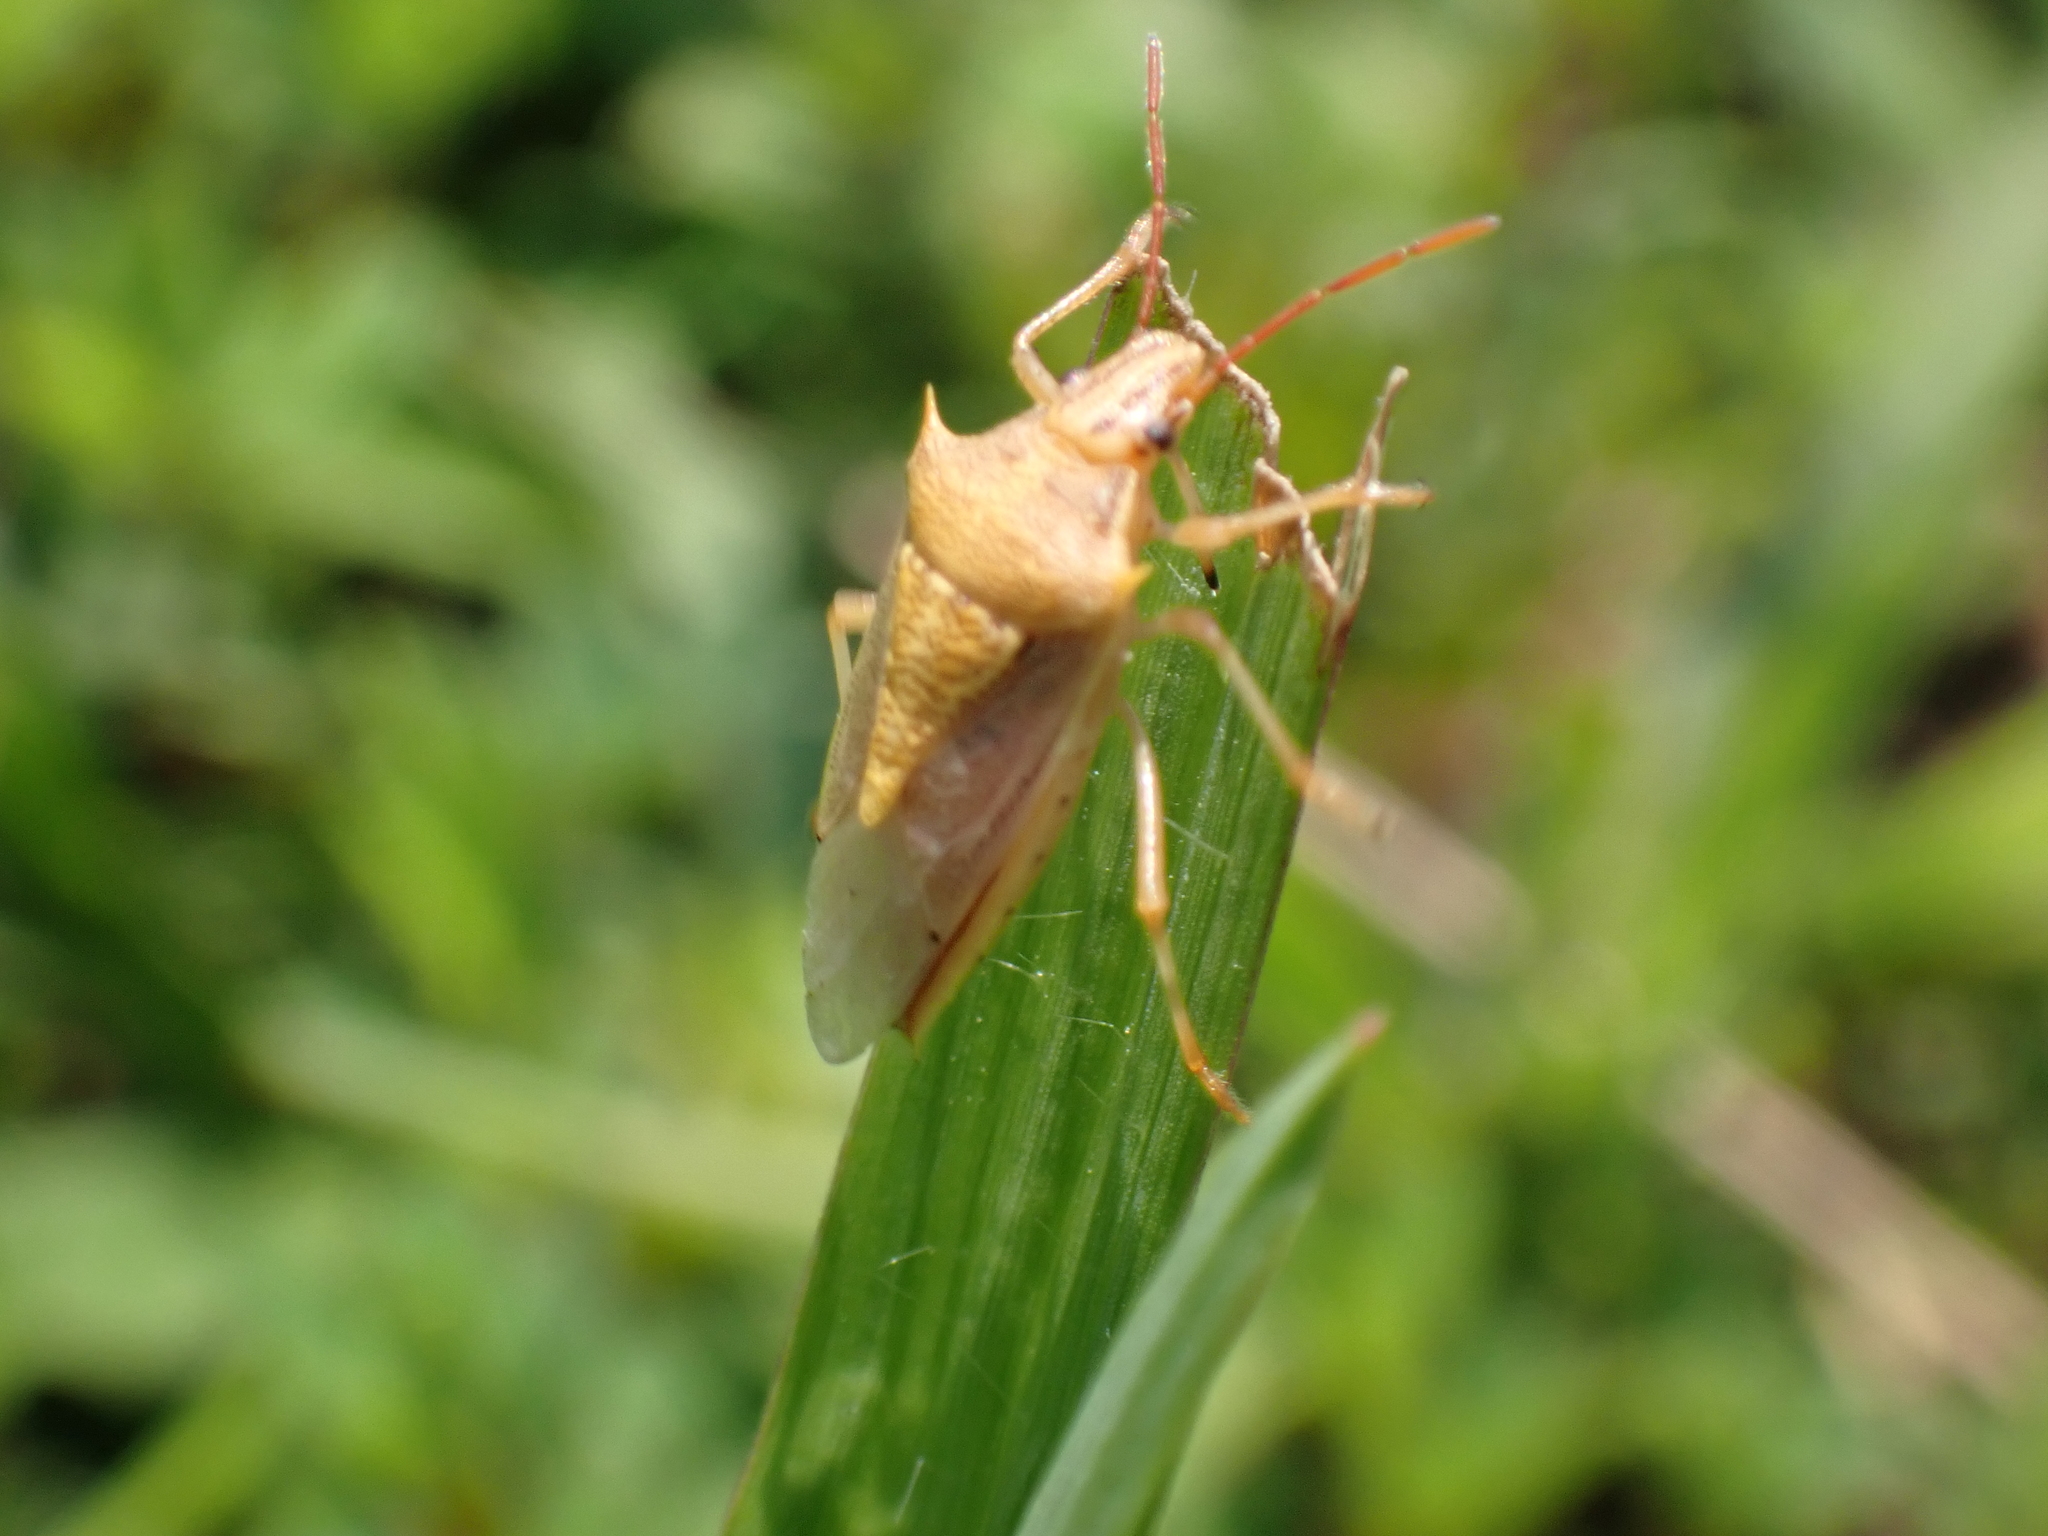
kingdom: Animalia
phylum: Arthropoda
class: Insecta
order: Hemiptera
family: Pentatomidae
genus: Oebalus
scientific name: Oebalus pugnax
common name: Rice stink bug
